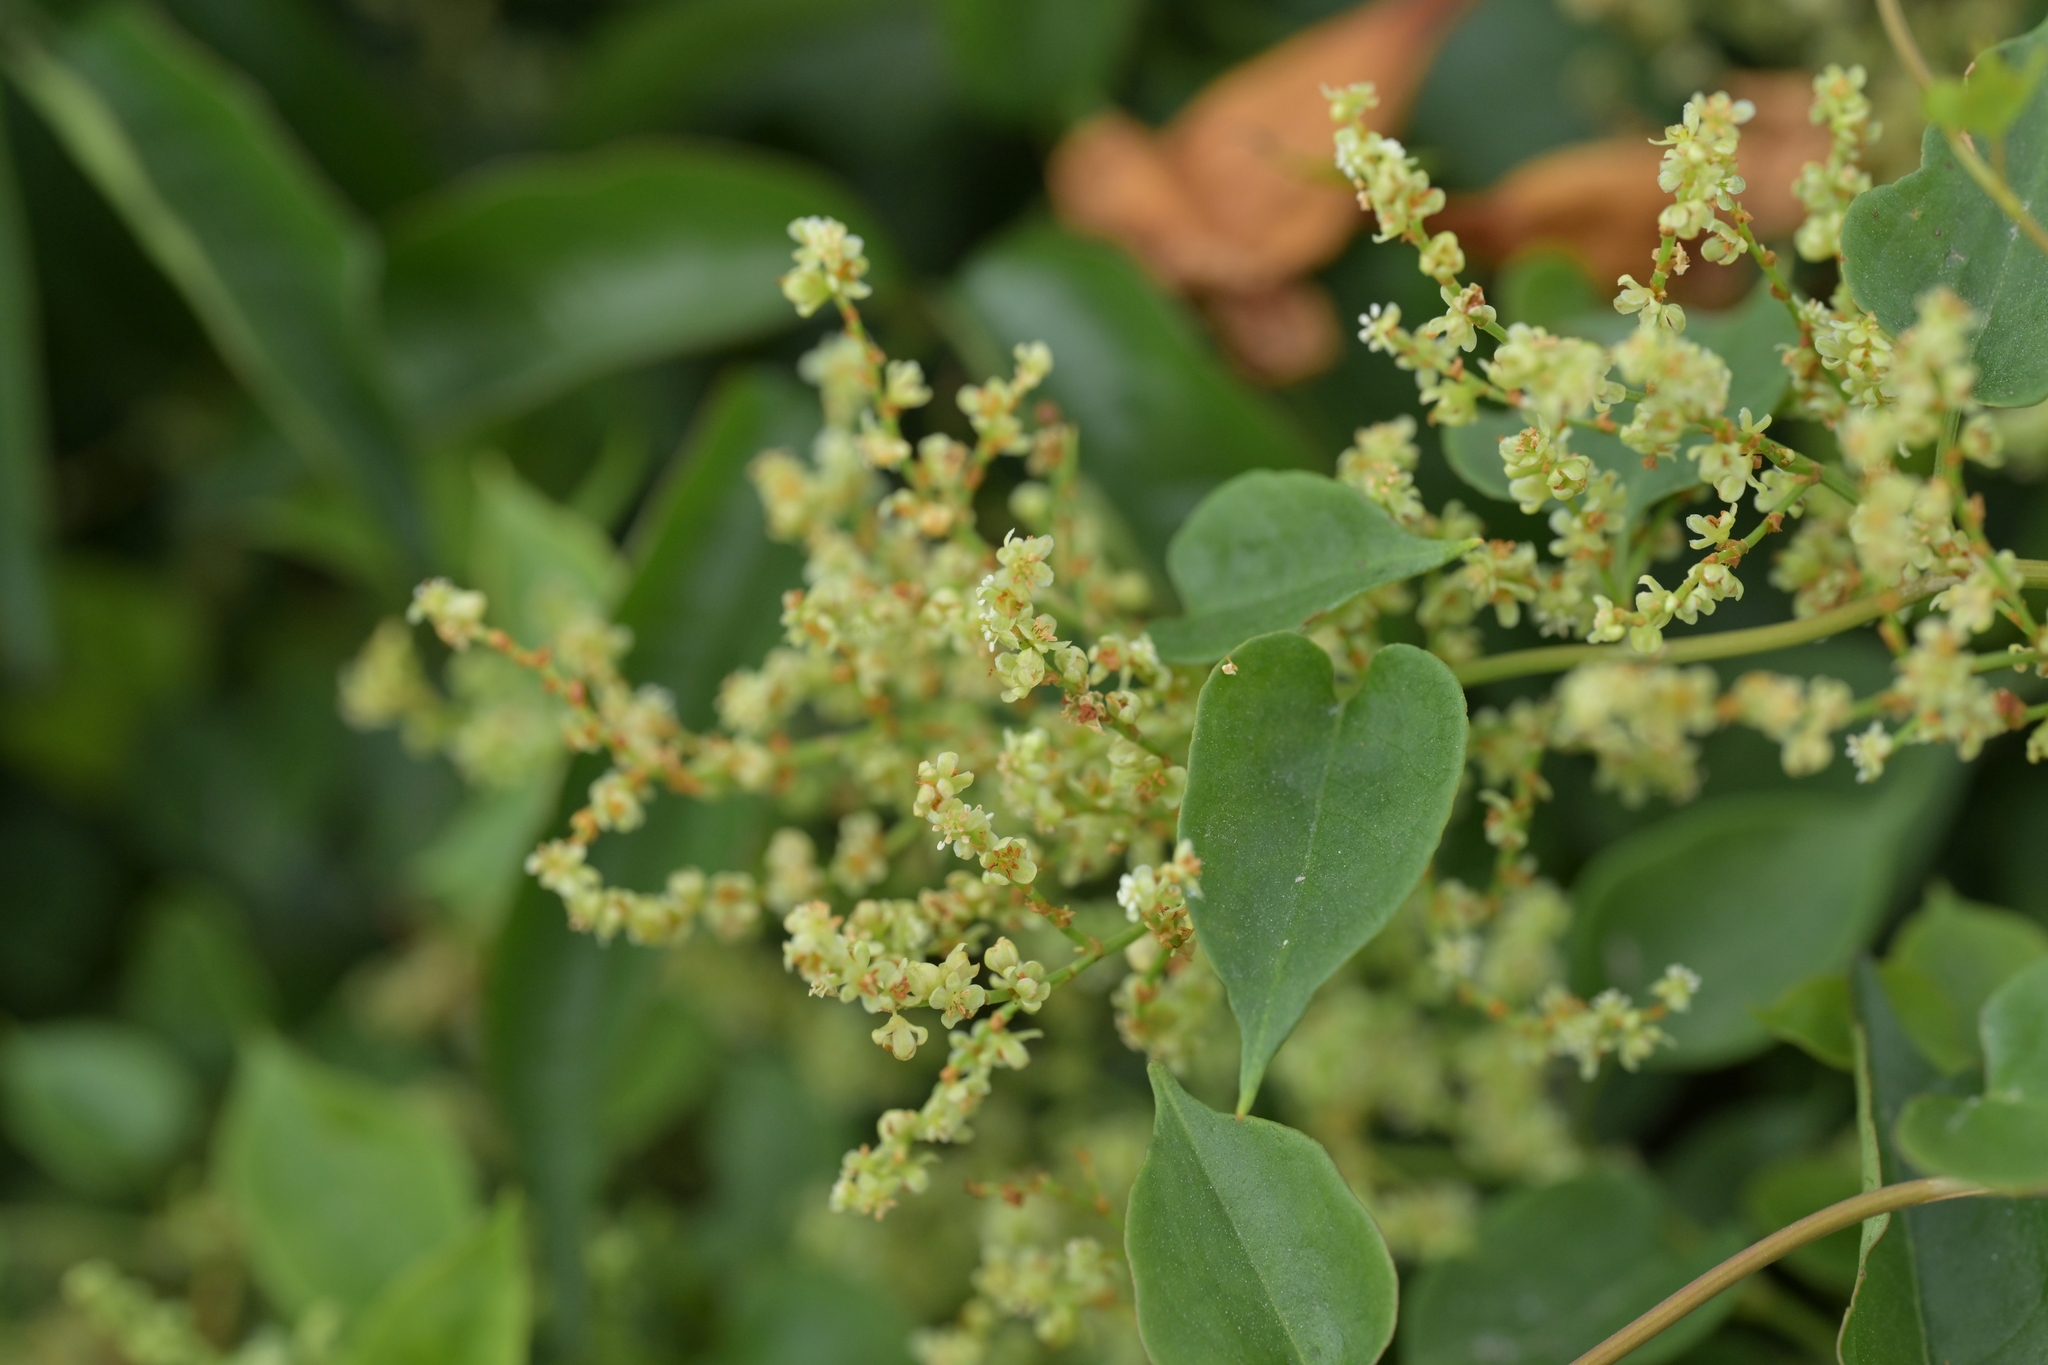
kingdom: Plantae
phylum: Tracheophyta
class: Magnoliopsida
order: Caryophyllales
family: Polygonaceae
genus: Muehlenbeckia
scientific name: Muehlenbeckia australis
